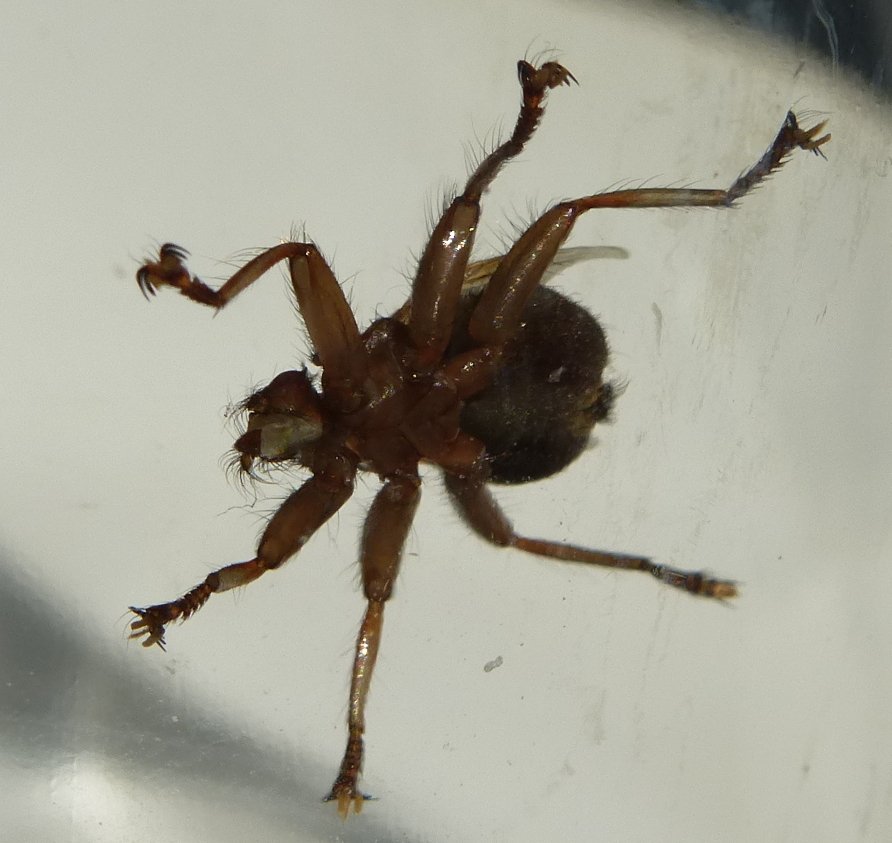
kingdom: Animalia
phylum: Arthropoda
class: Insecta
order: Diptera
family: Hippoboscidae
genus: Crataerina
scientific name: Crataerina pallida
